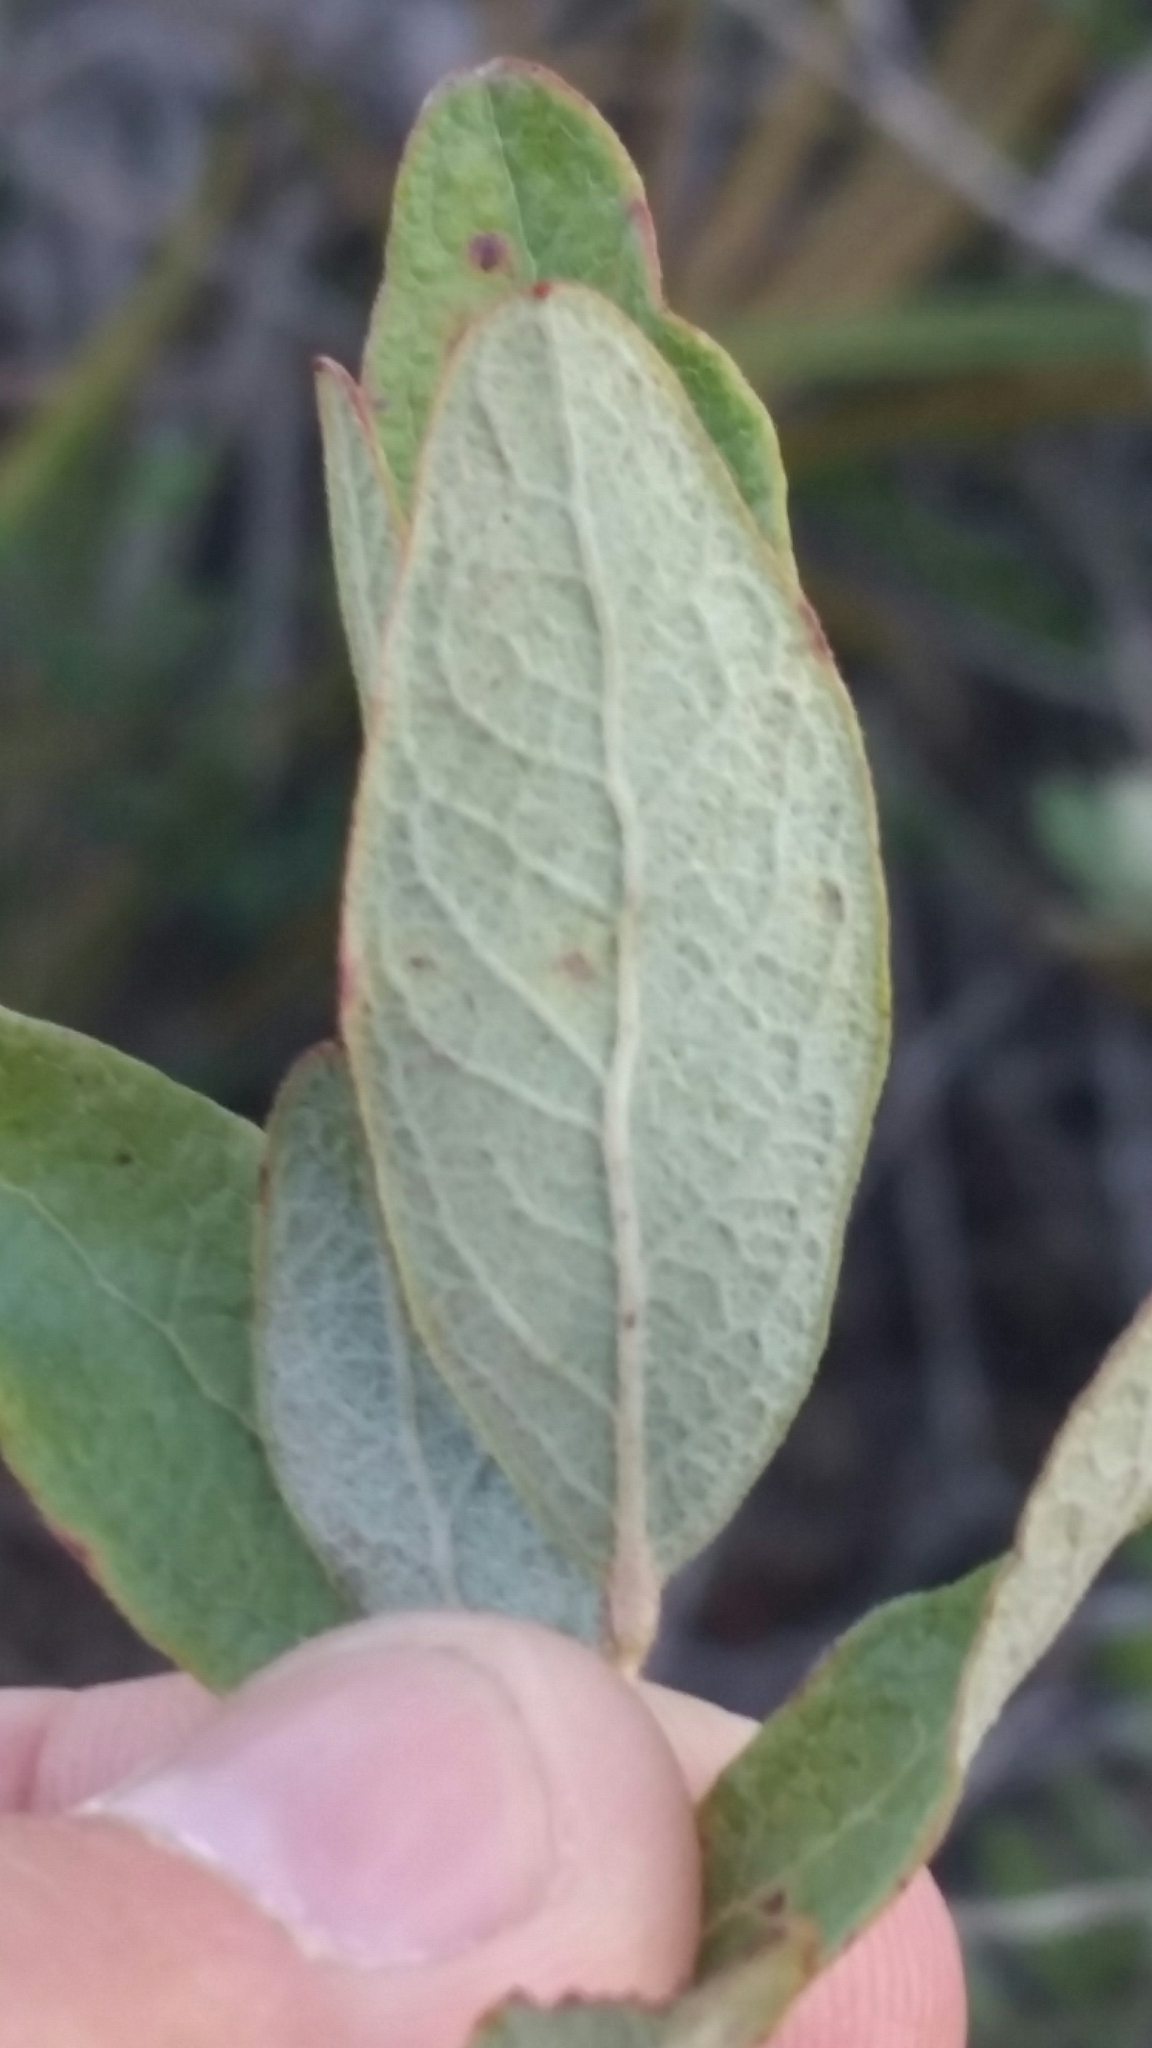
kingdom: Plantae
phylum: Tracheophyta
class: Magnoliopsida
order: Ericales
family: Ericaceae
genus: Gaylussacia
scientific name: Gaylussacia nana
